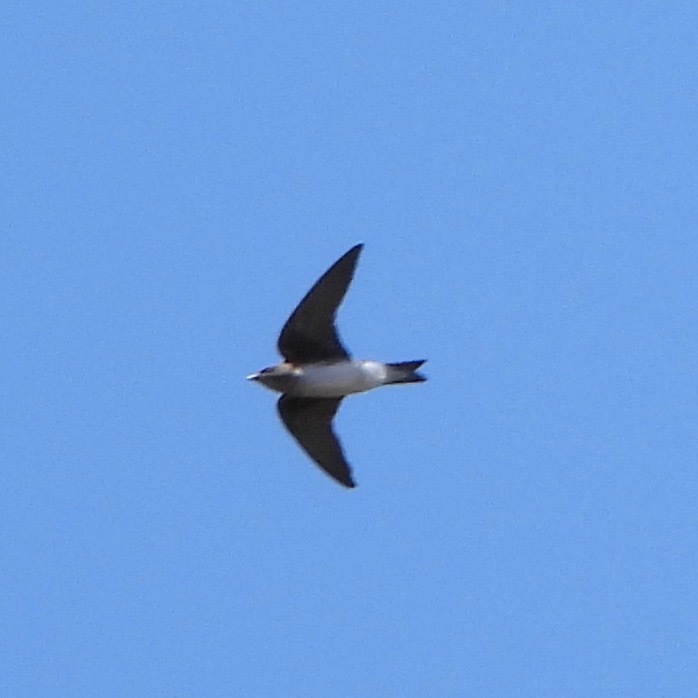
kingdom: Animalia
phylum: Chordata
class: Aves
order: Passeriformes
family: Hirundinidae
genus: Progne
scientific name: Progne chalybea
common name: Grey-breasted martin
